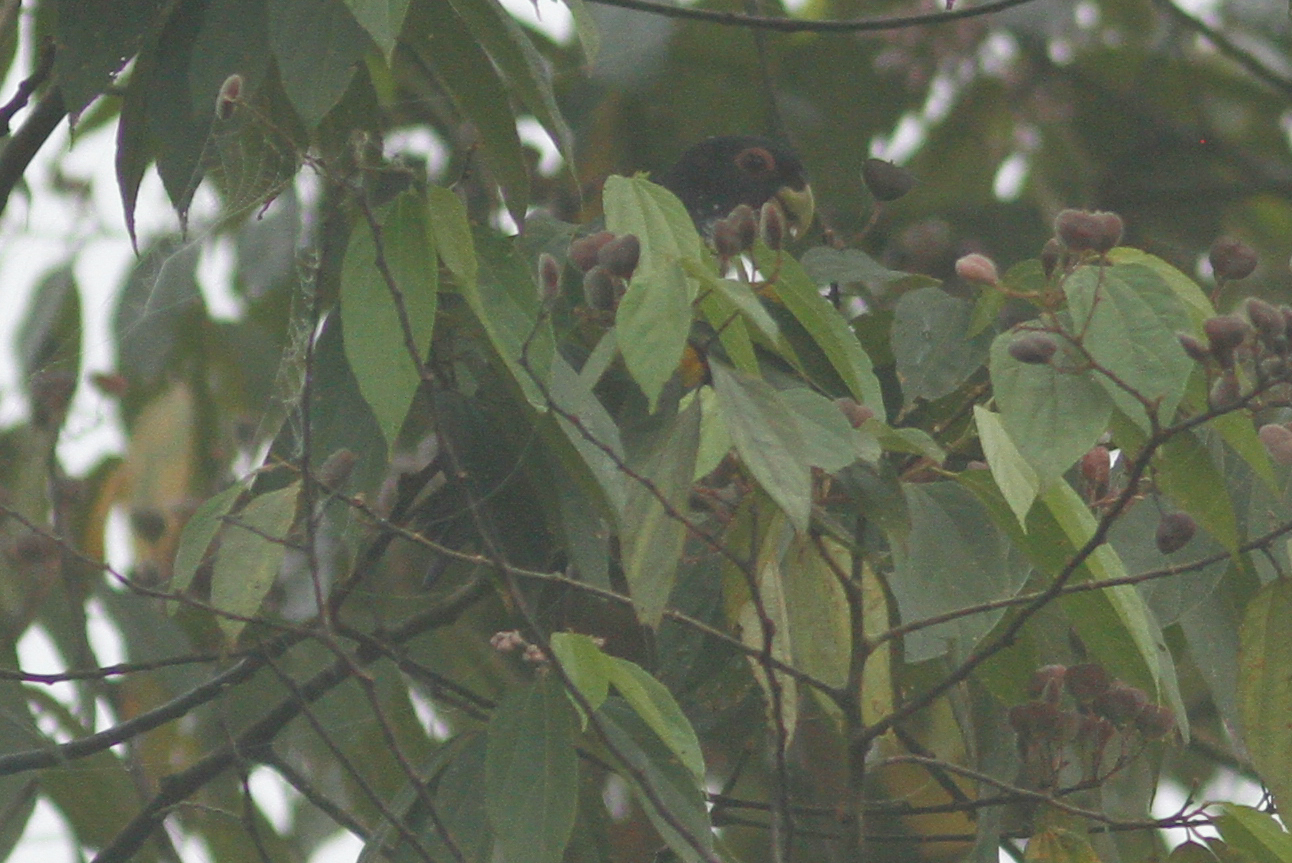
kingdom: Animalia
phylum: Chordata
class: Aves
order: Psittaciformes
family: Psittacidae
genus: Pionus
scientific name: Pionus chalcopterus
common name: Bronze-winged parrot
